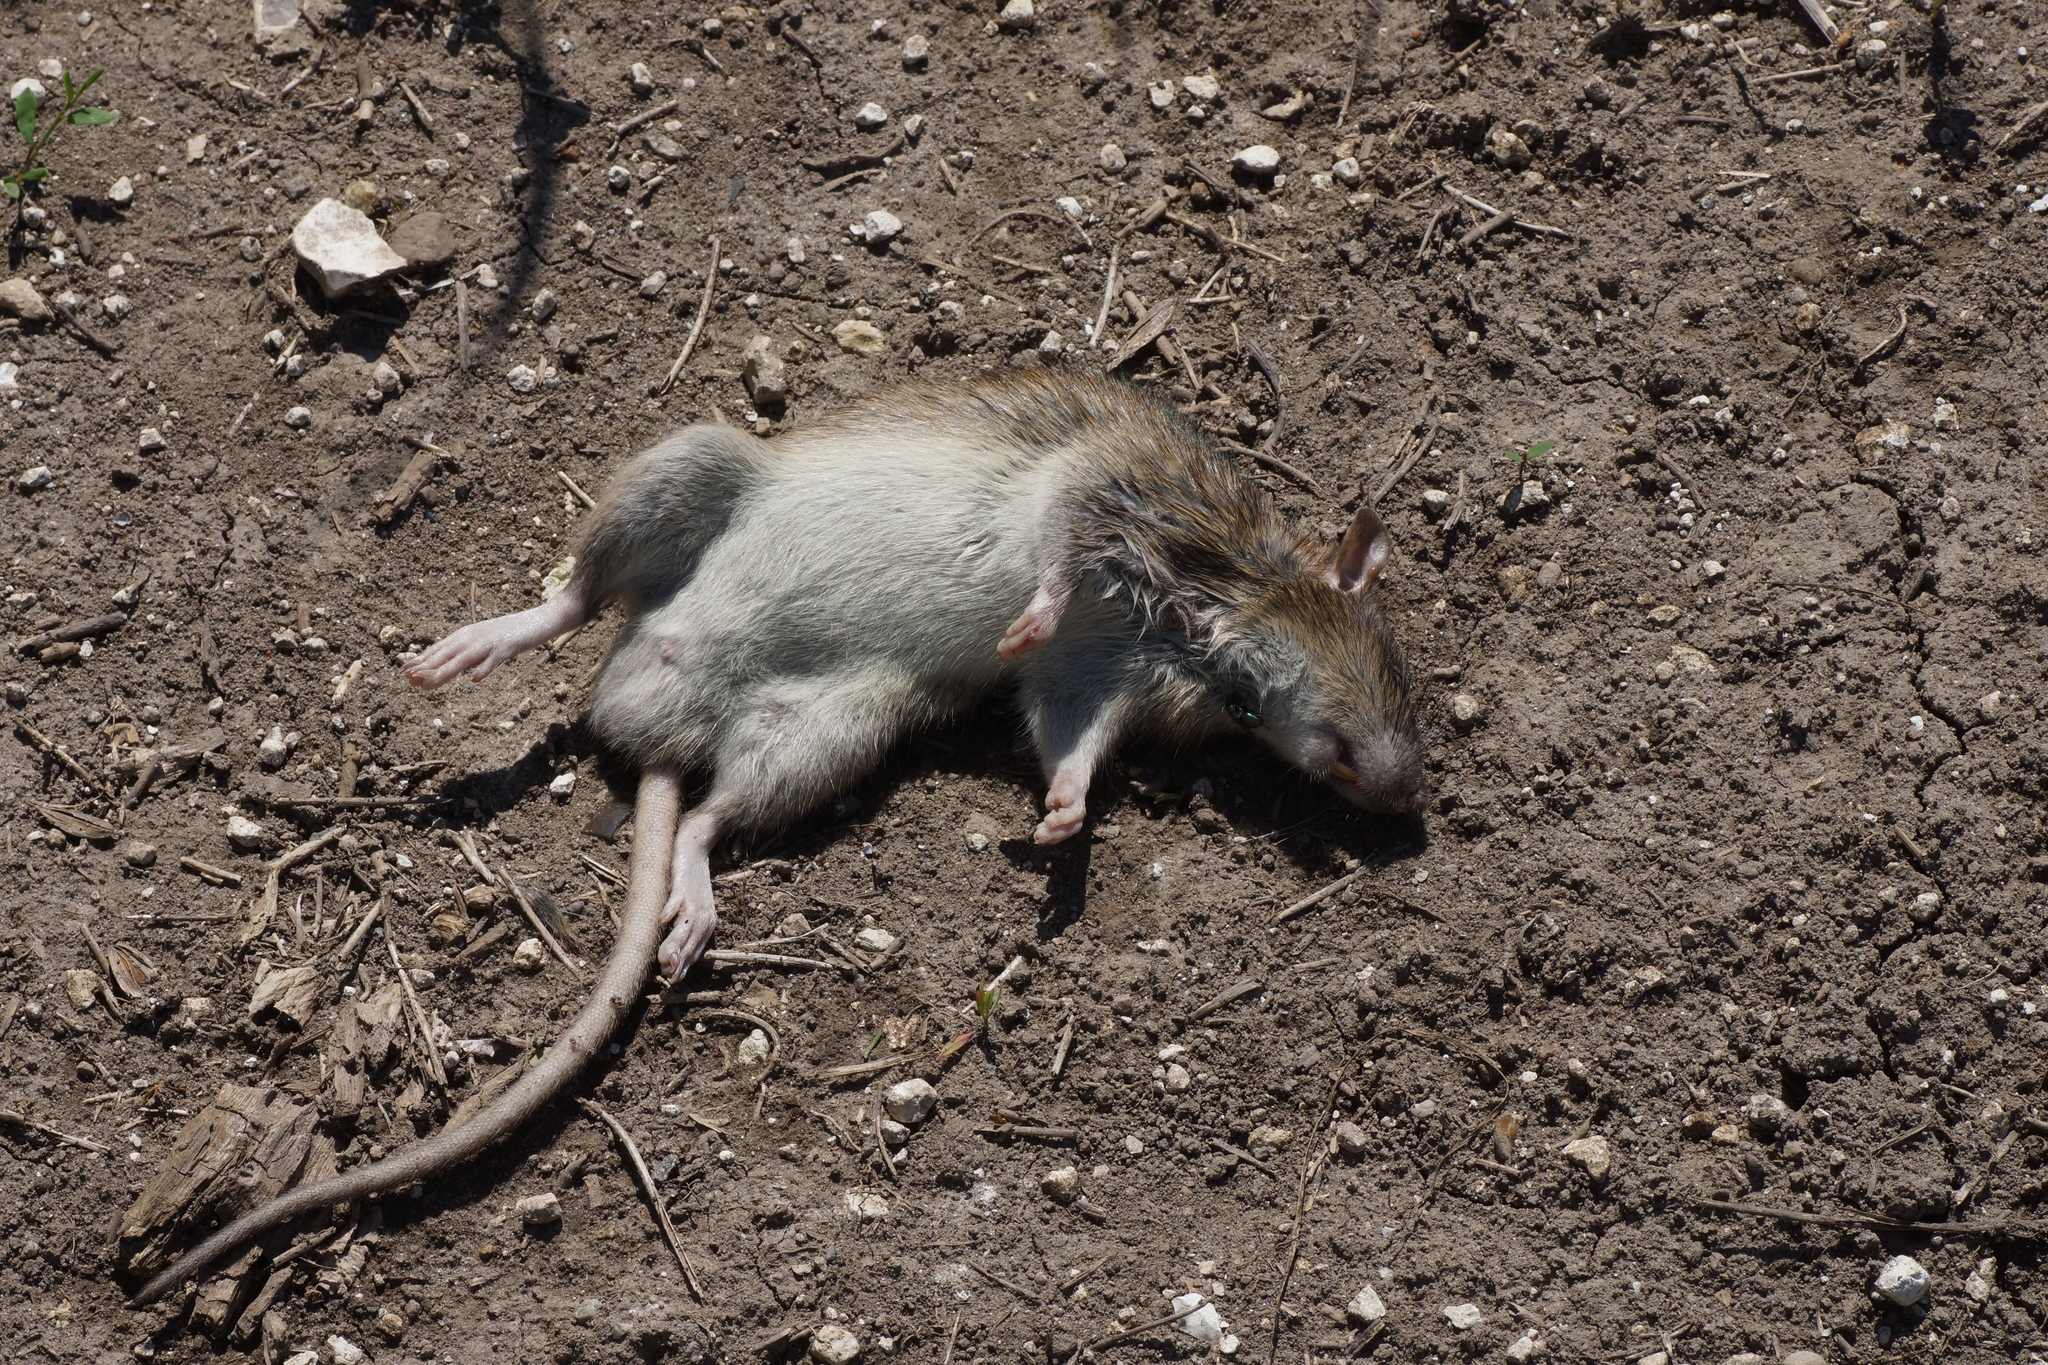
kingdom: Animalia
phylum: Chordata
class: Mammalia
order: Rodentia
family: Muridae
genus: Rattus
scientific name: Rattus norvegicus
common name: Brown rat
